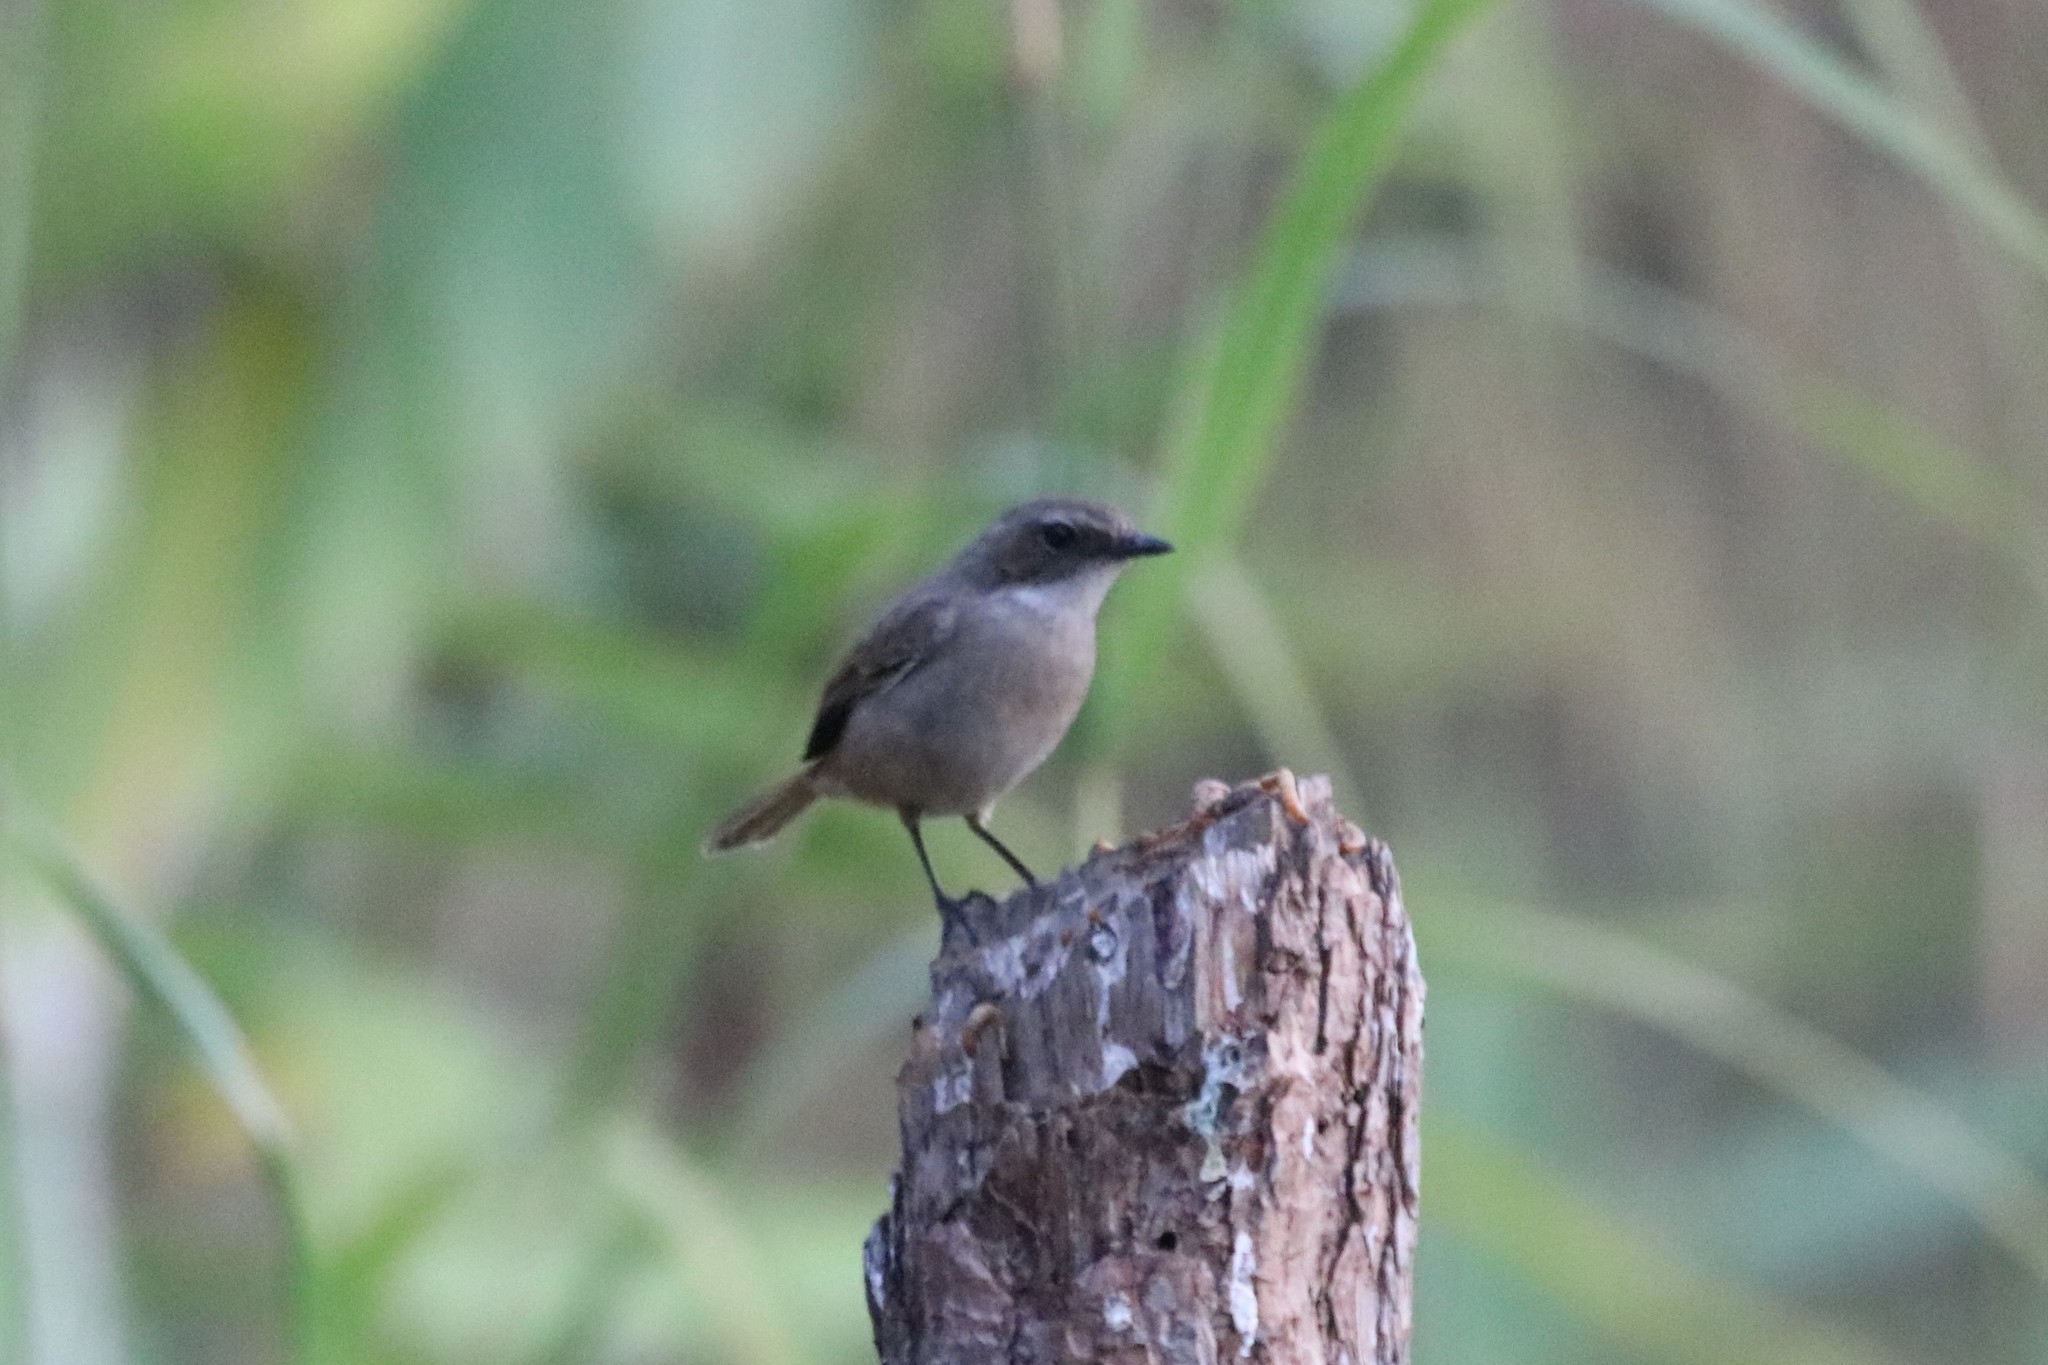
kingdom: Animalia
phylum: Chordata
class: Aves
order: Passeriformes
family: Muscicapidae
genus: Saxicola
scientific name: Saxicola ferreus
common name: Grey bush chat
